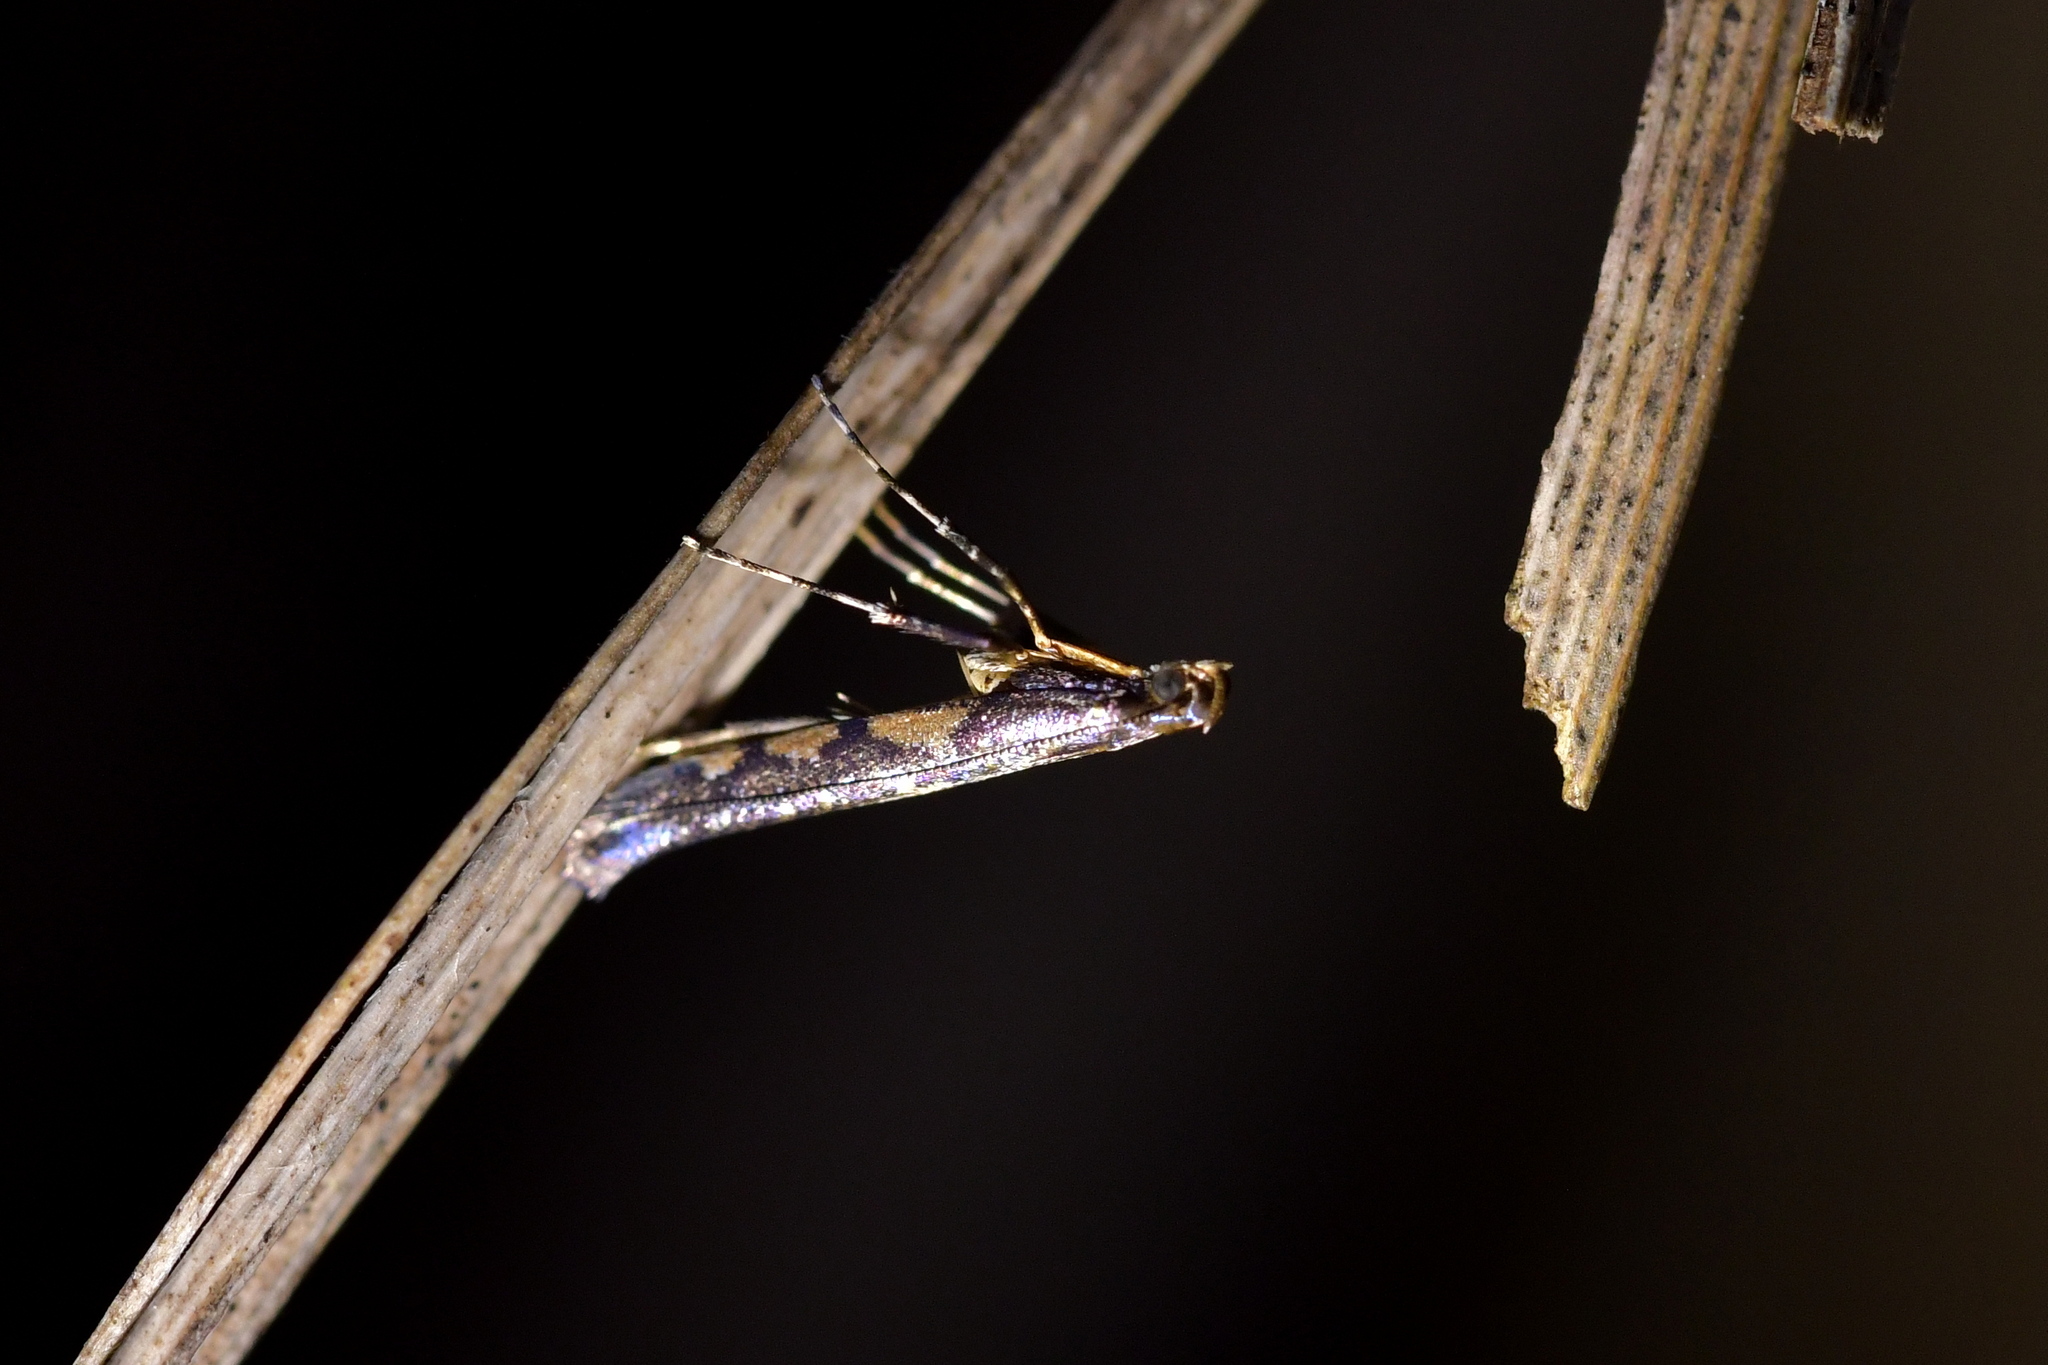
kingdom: Animalia
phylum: Arthropoda
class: Insecta
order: Lepidoptera
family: Gracillariidae
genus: Caloptilia
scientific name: Caloptilia linearis
